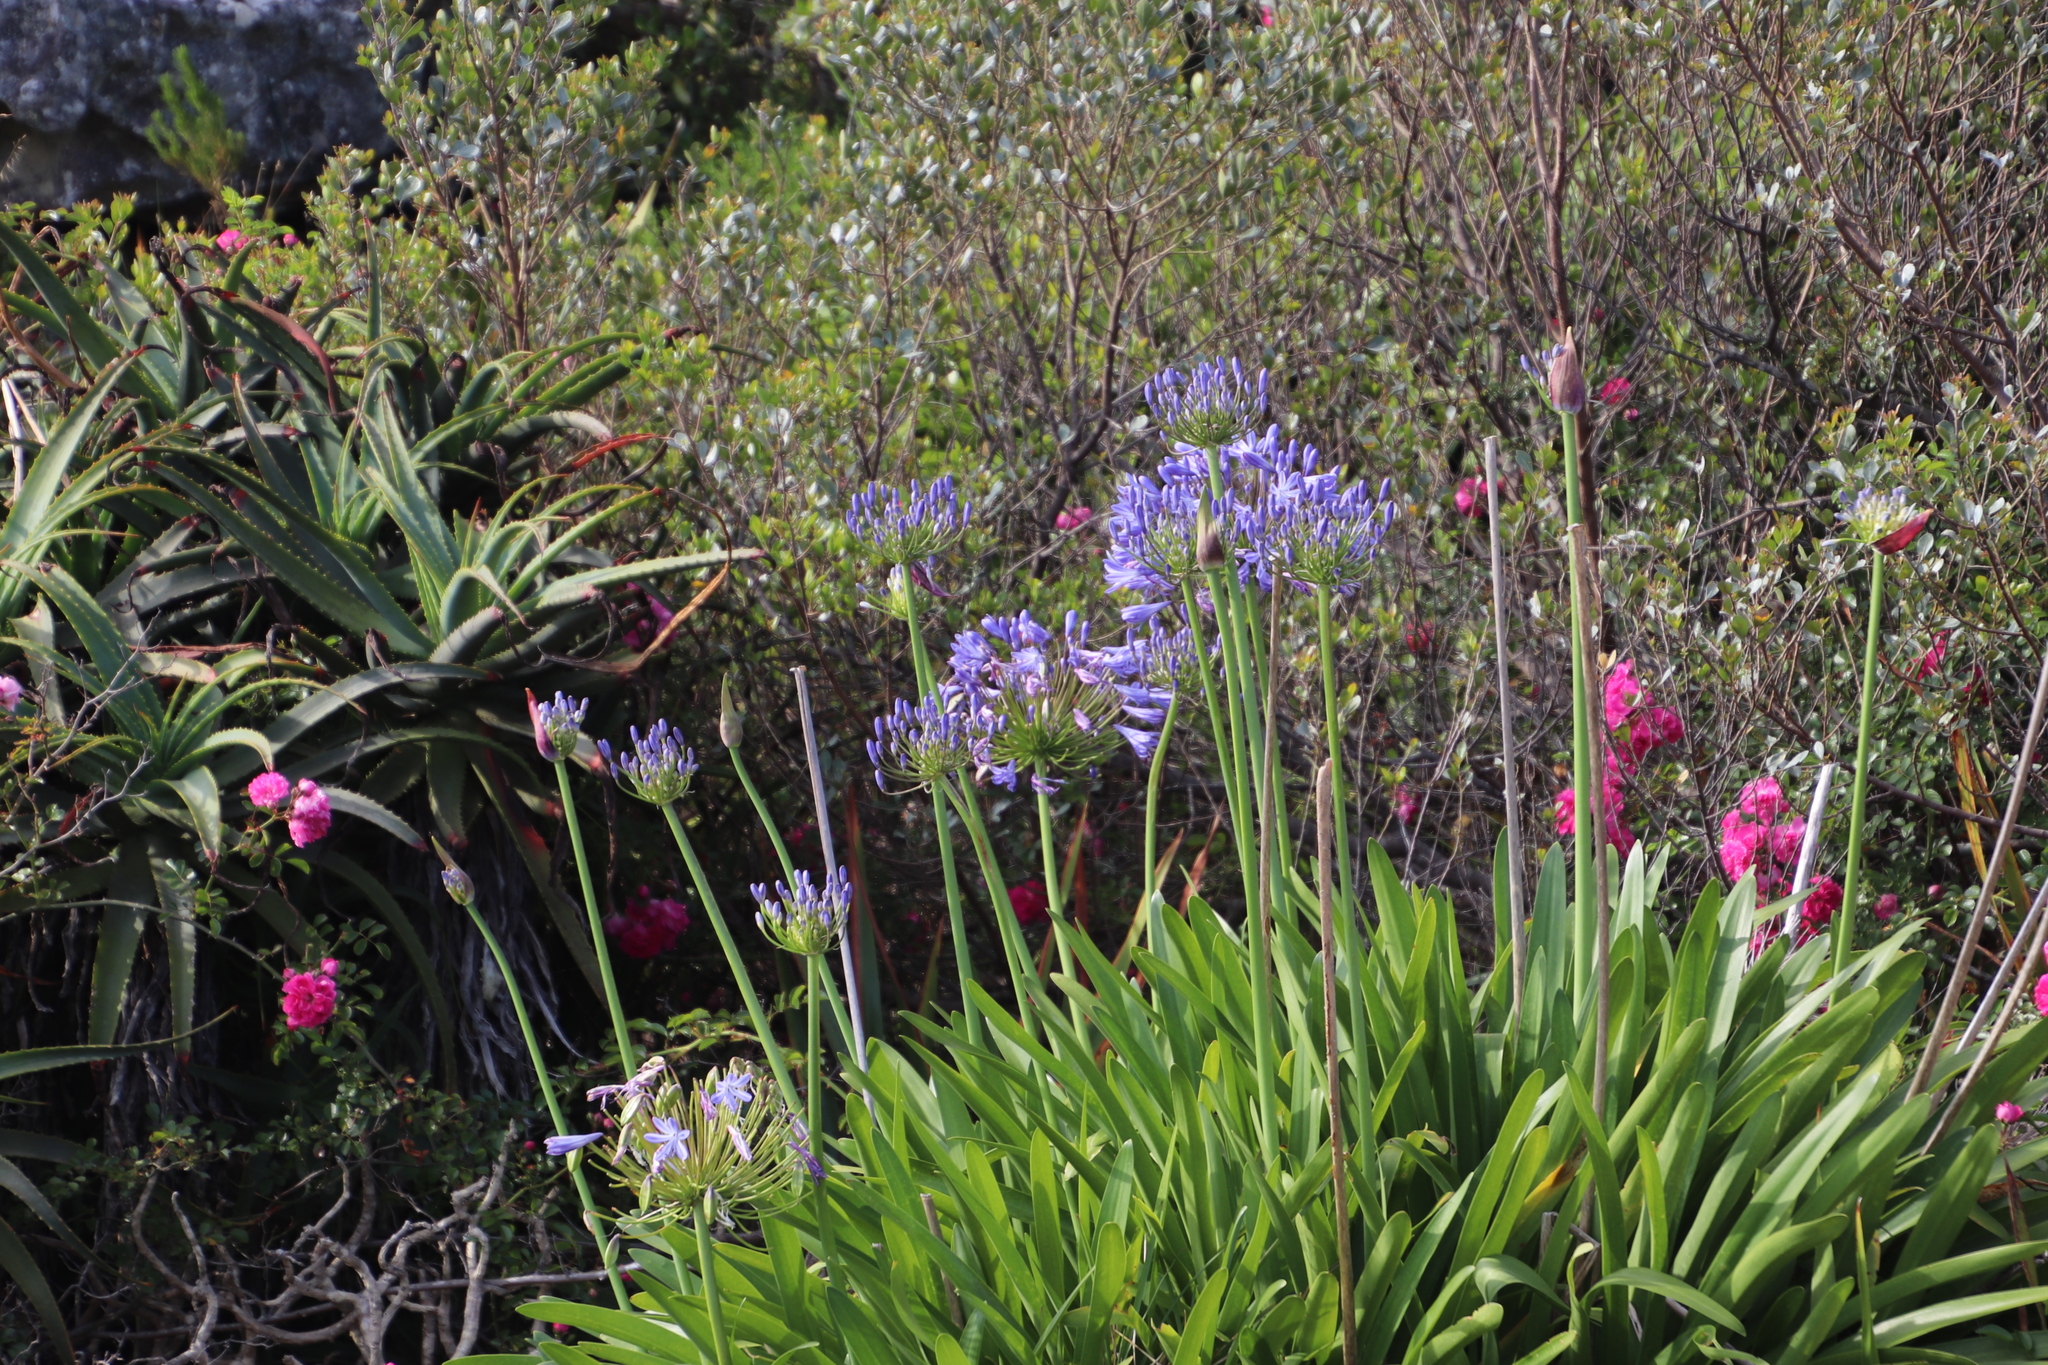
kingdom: Plantae
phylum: Tracheophyta
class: Liliopsida
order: Asparagales
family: Amaryllidaceae
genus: Agapanthus
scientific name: Agapanthus praecox
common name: African-lily
